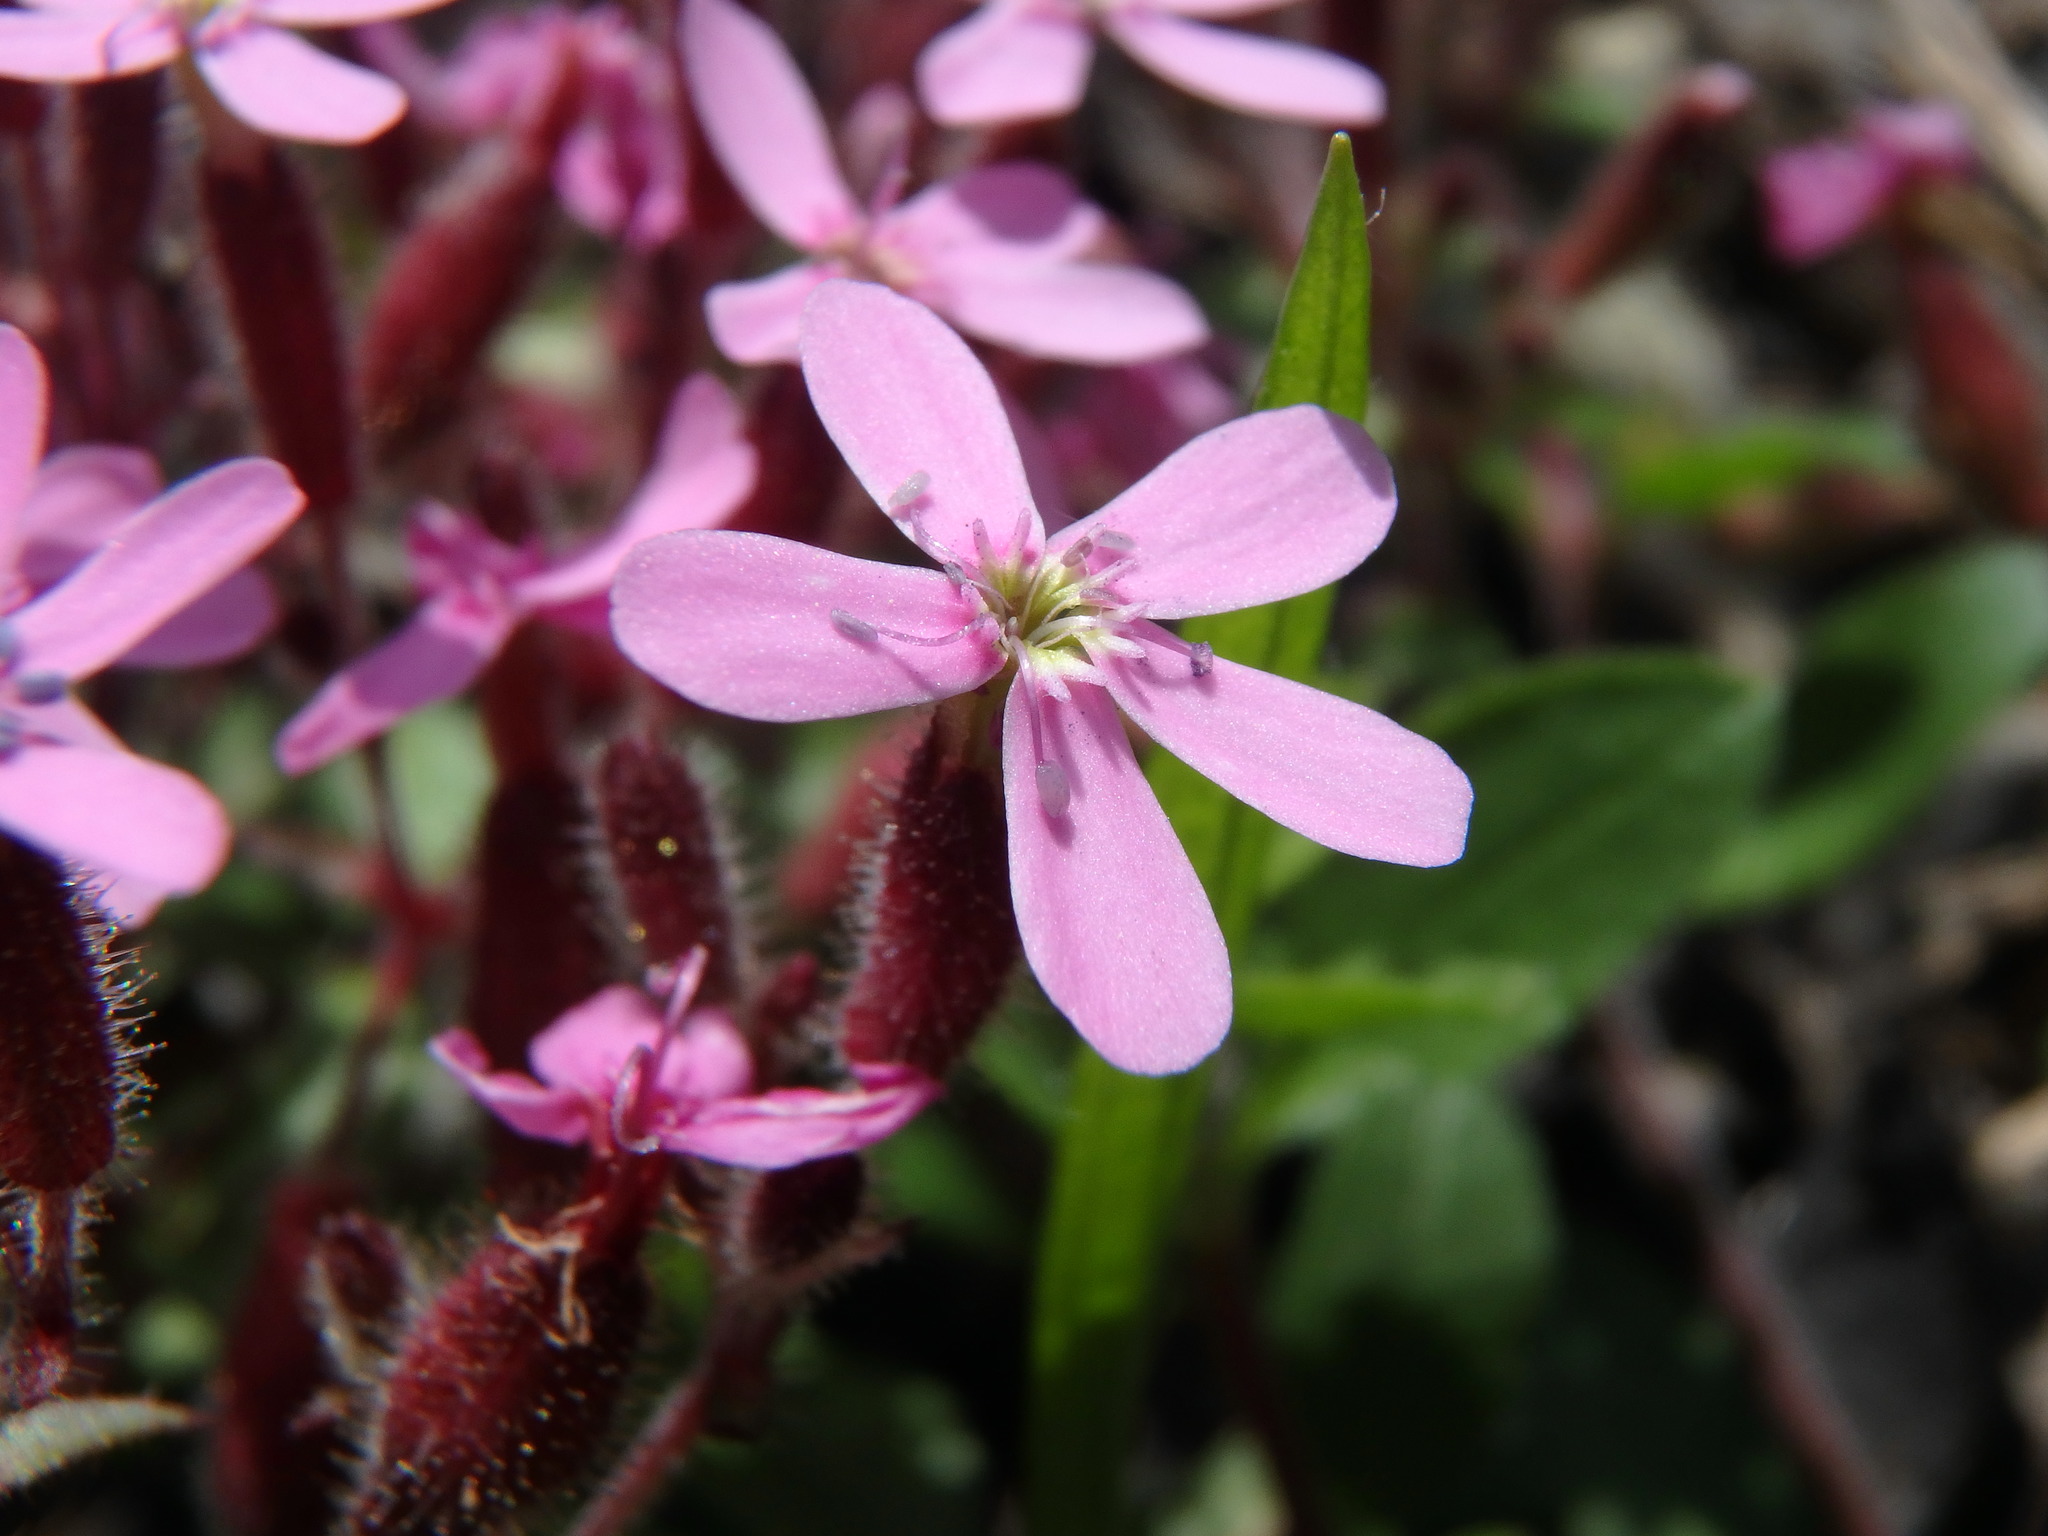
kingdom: Plantae
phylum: Tracheophyta
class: Magnoliopsida
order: Caryophyllales
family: Caryophyllaceae
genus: Saponaria
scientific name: Saponaria ocymoides
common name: Rock soapwort
